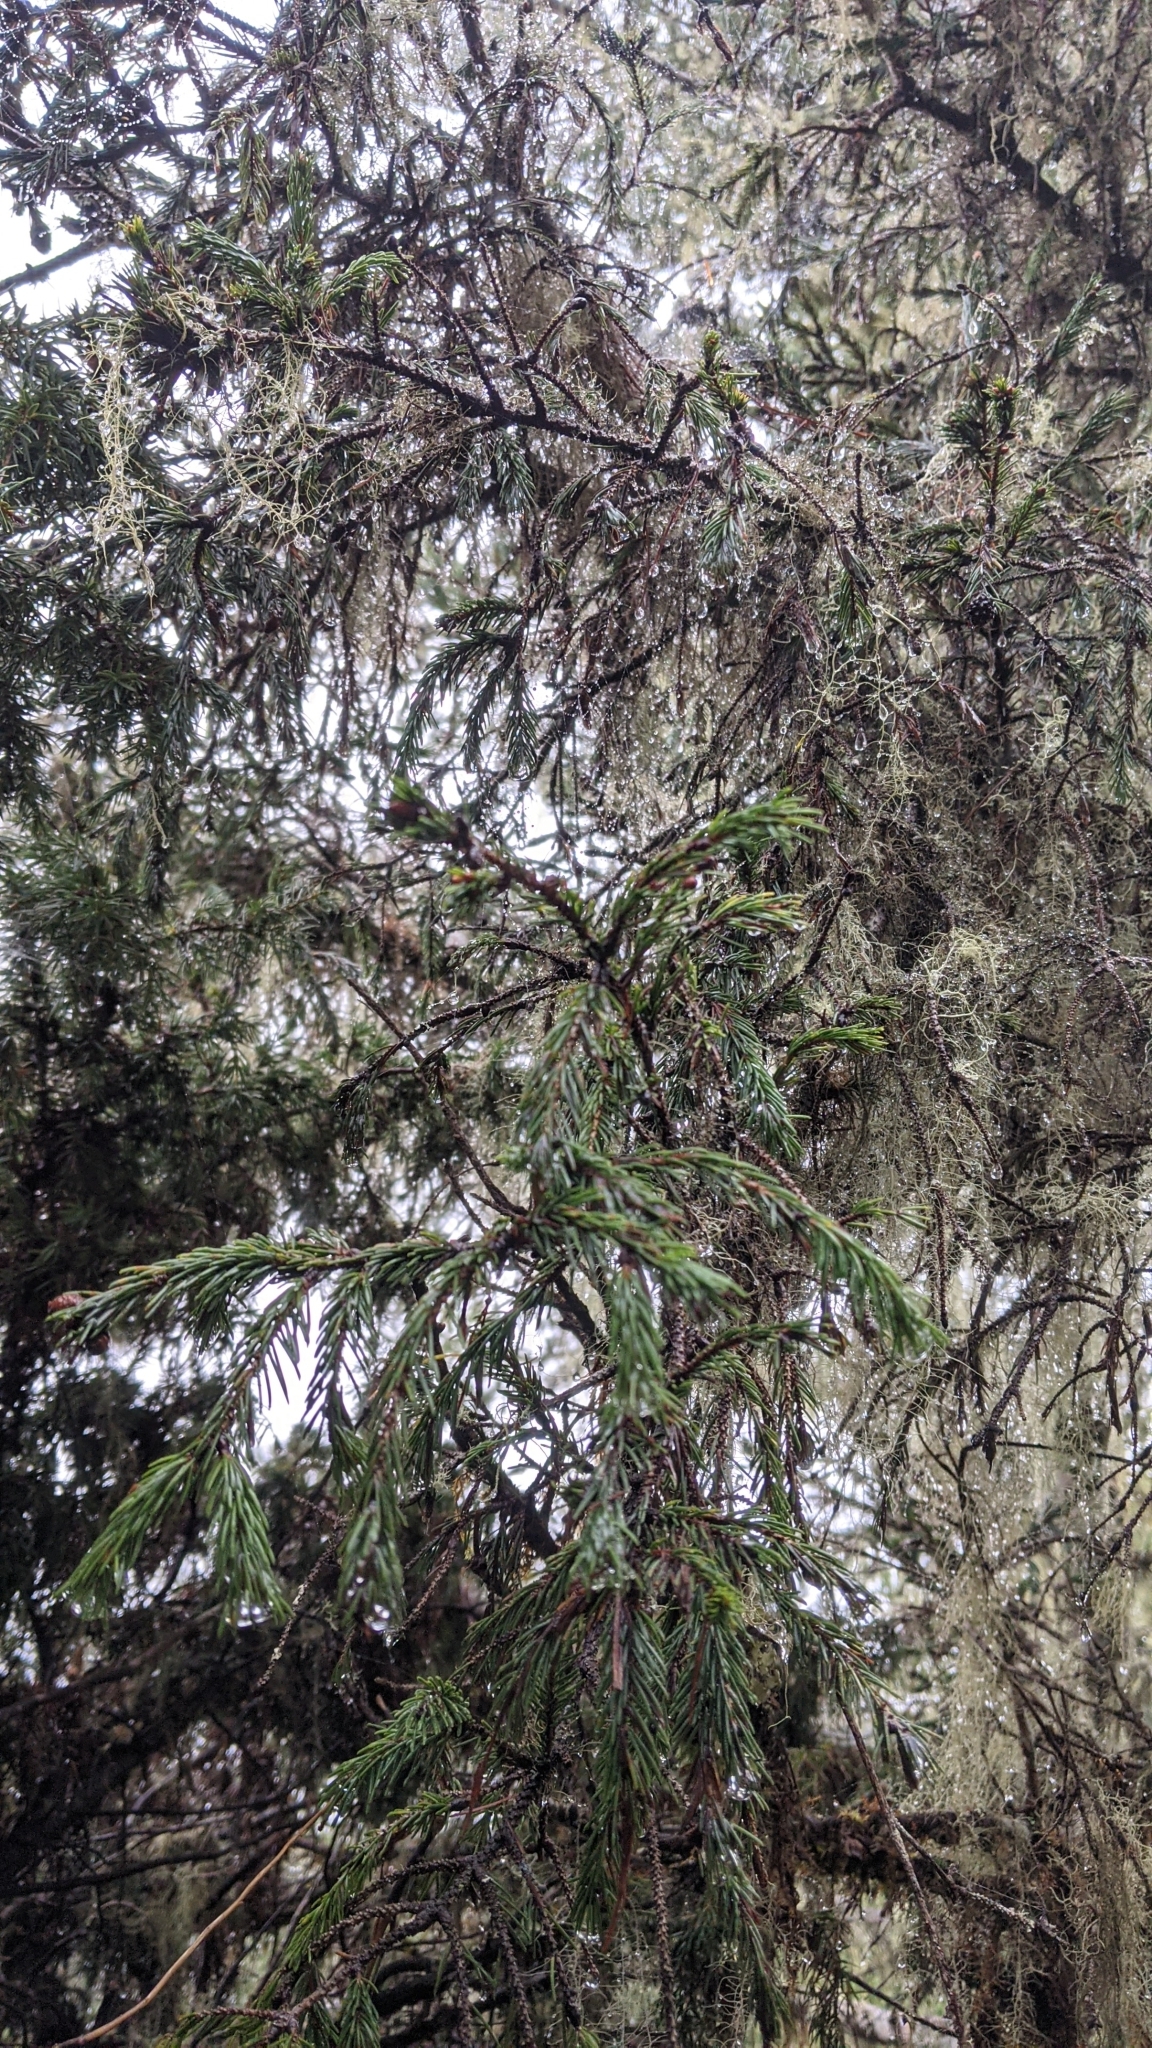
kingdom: Plantae
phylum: Tracheophyta
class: Pinopsida
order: Pinales
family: Pinaceae
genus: Picea
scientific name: Picea morrisonicola
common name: Mount morrison spruce
